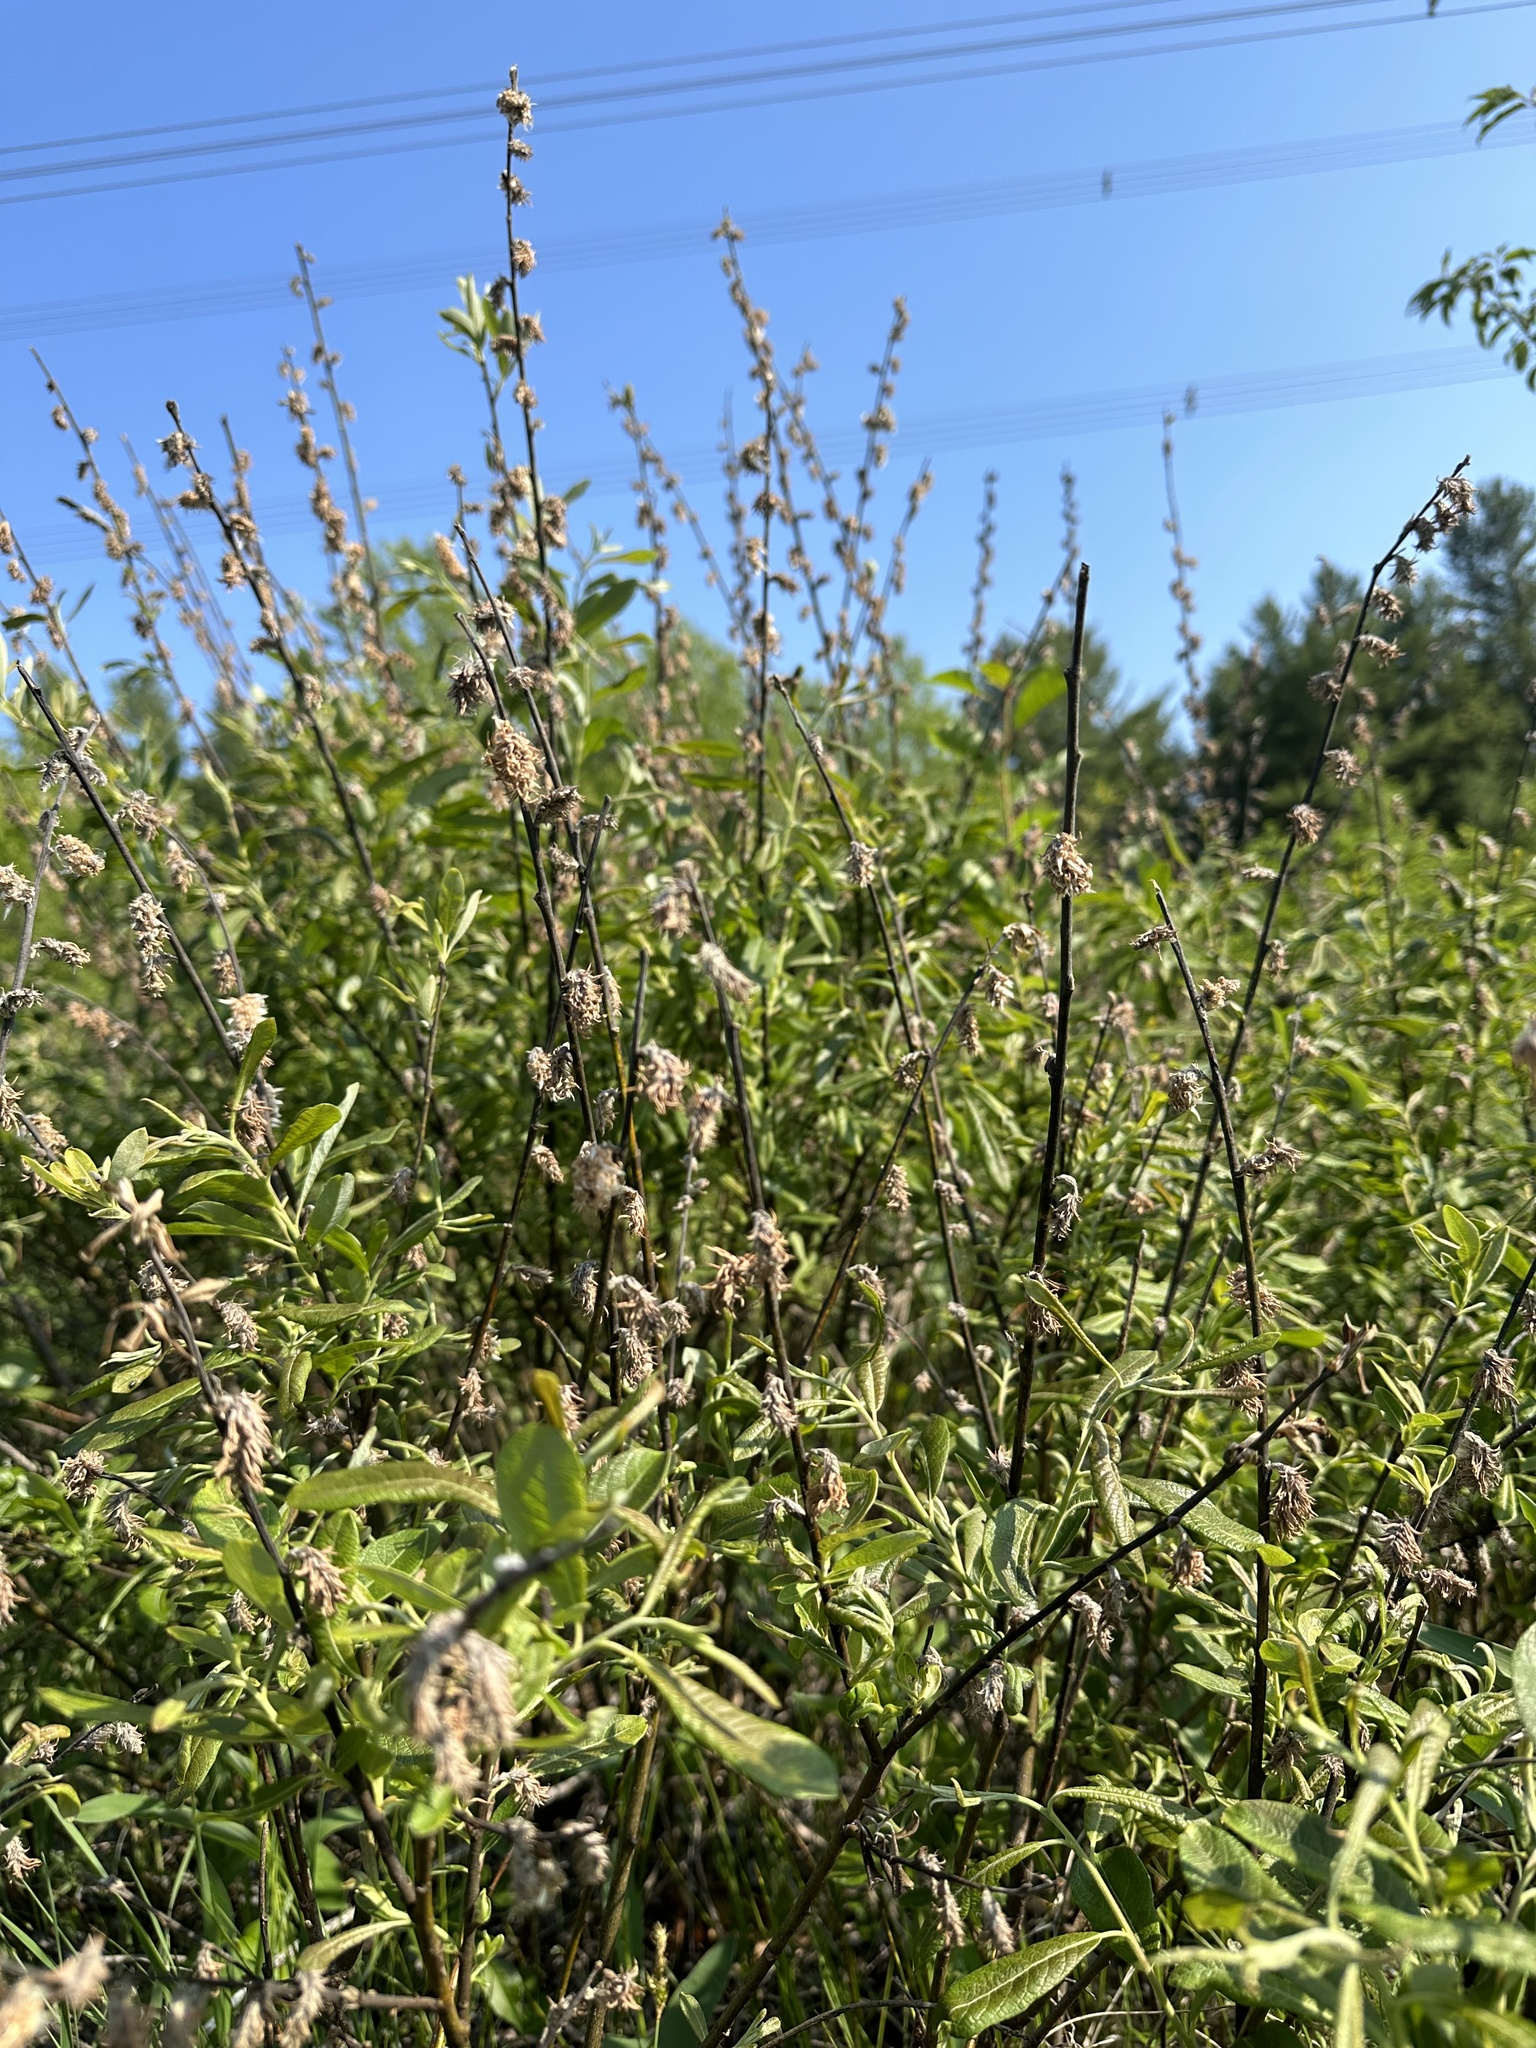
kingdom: Plantae
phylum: Tracheophyta
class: Magnoliopsida
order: Malpighiales
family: Salicaceae
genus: Salix
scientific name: Salix humilis
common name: Prairie willow
